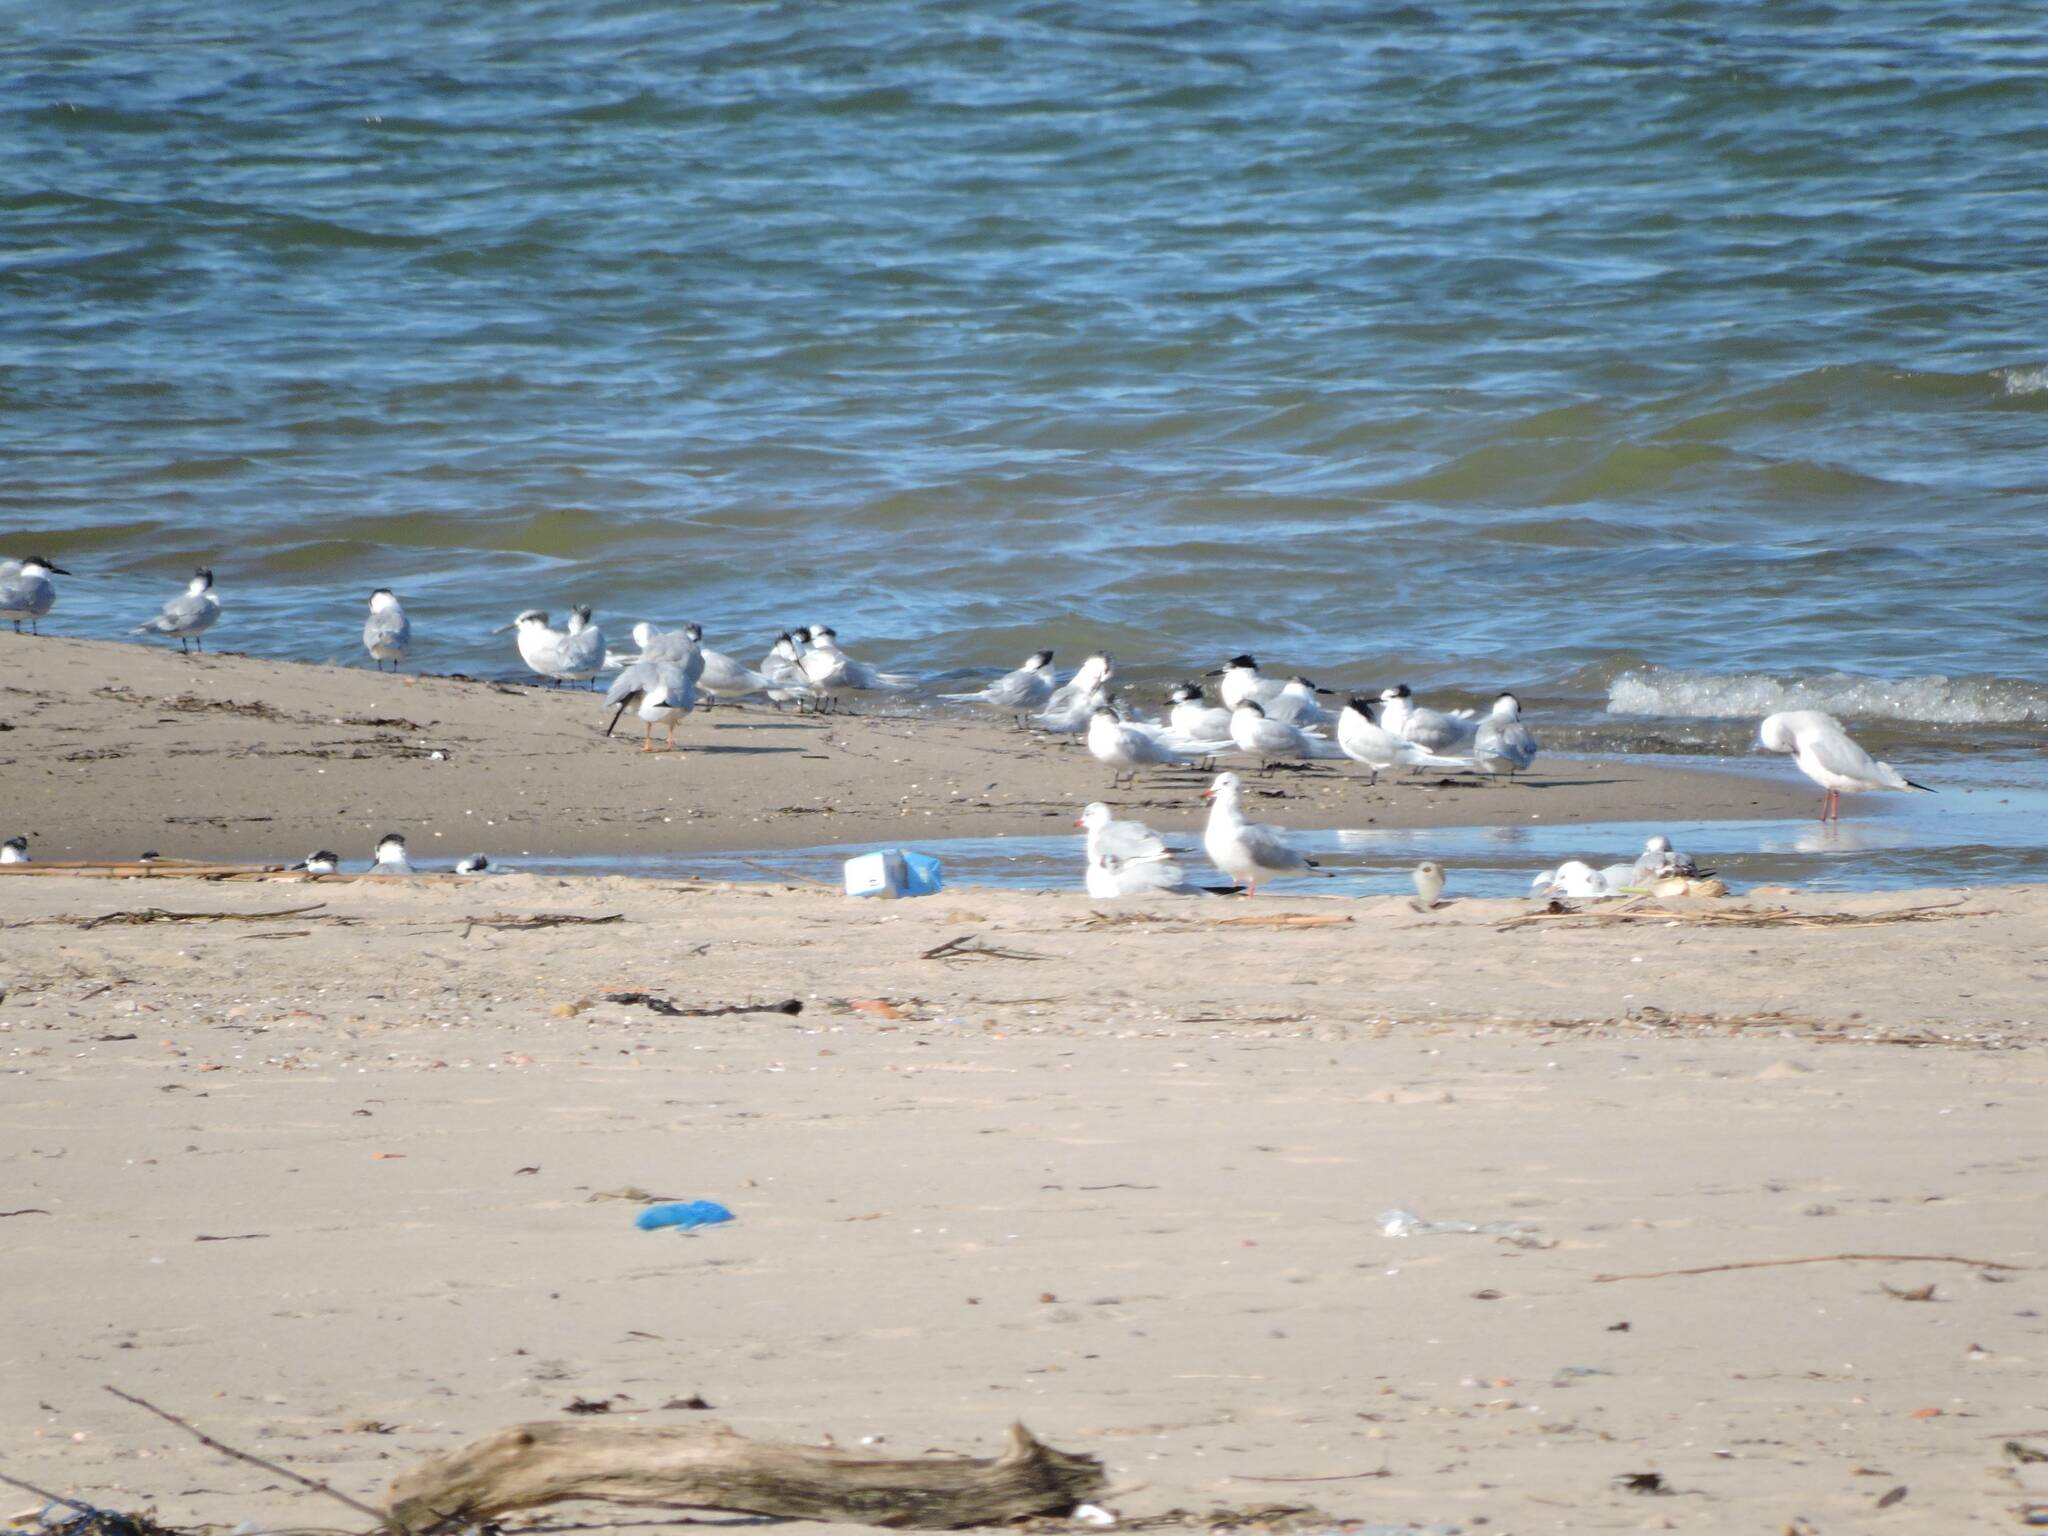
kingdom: Animalia
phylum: Chordata
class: Aves
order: Charadriiformes
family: Laridae
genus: Thalasseus
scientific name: Thalasseus sandvicensis
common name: Sandwich tern
